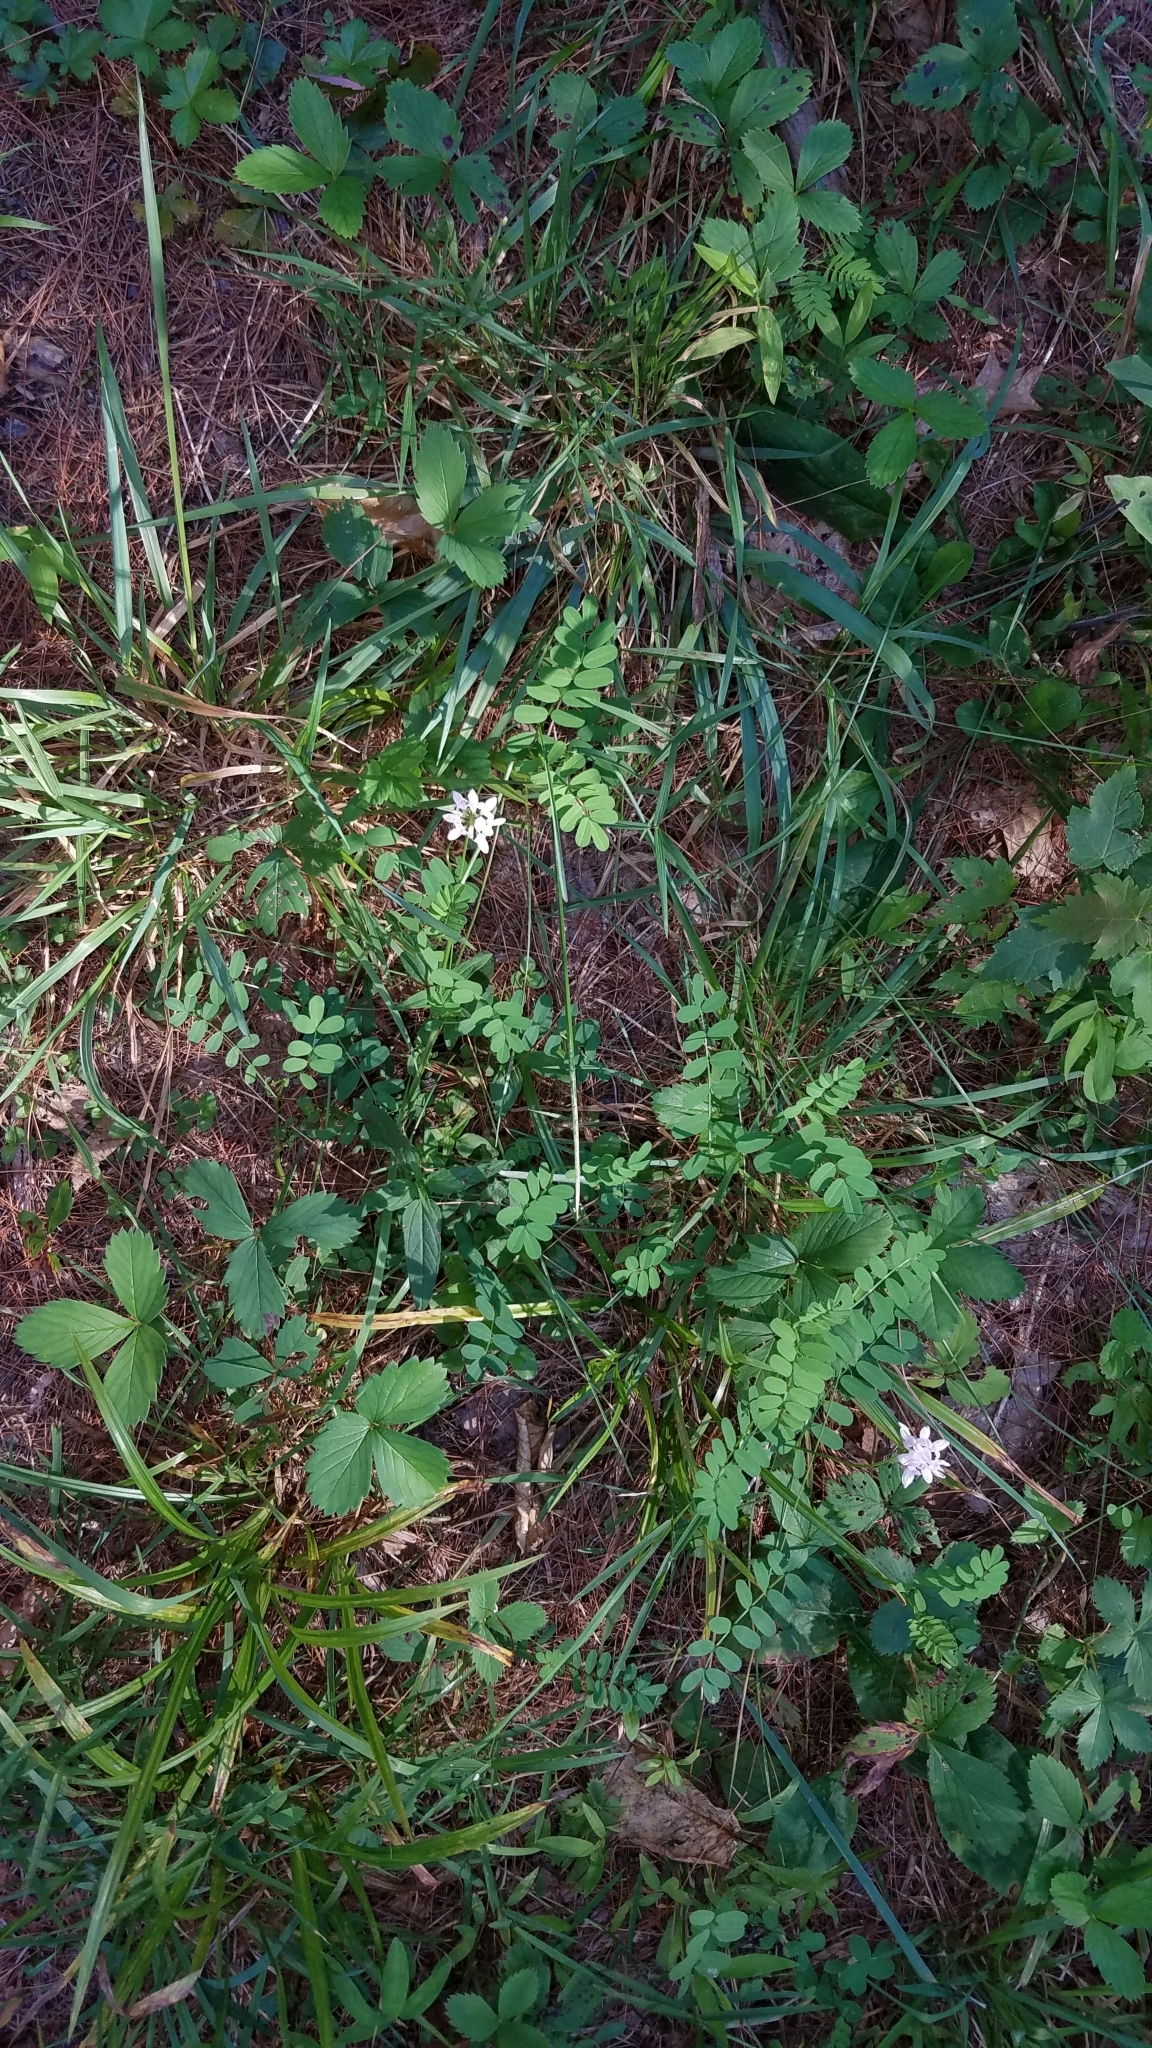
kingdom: Plantae
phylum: Tracheophyta
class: Magnoliopsida
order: Fabales
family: Fabaceae
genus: Coronilla
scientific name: Coronilla varia
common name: Crownvetch
